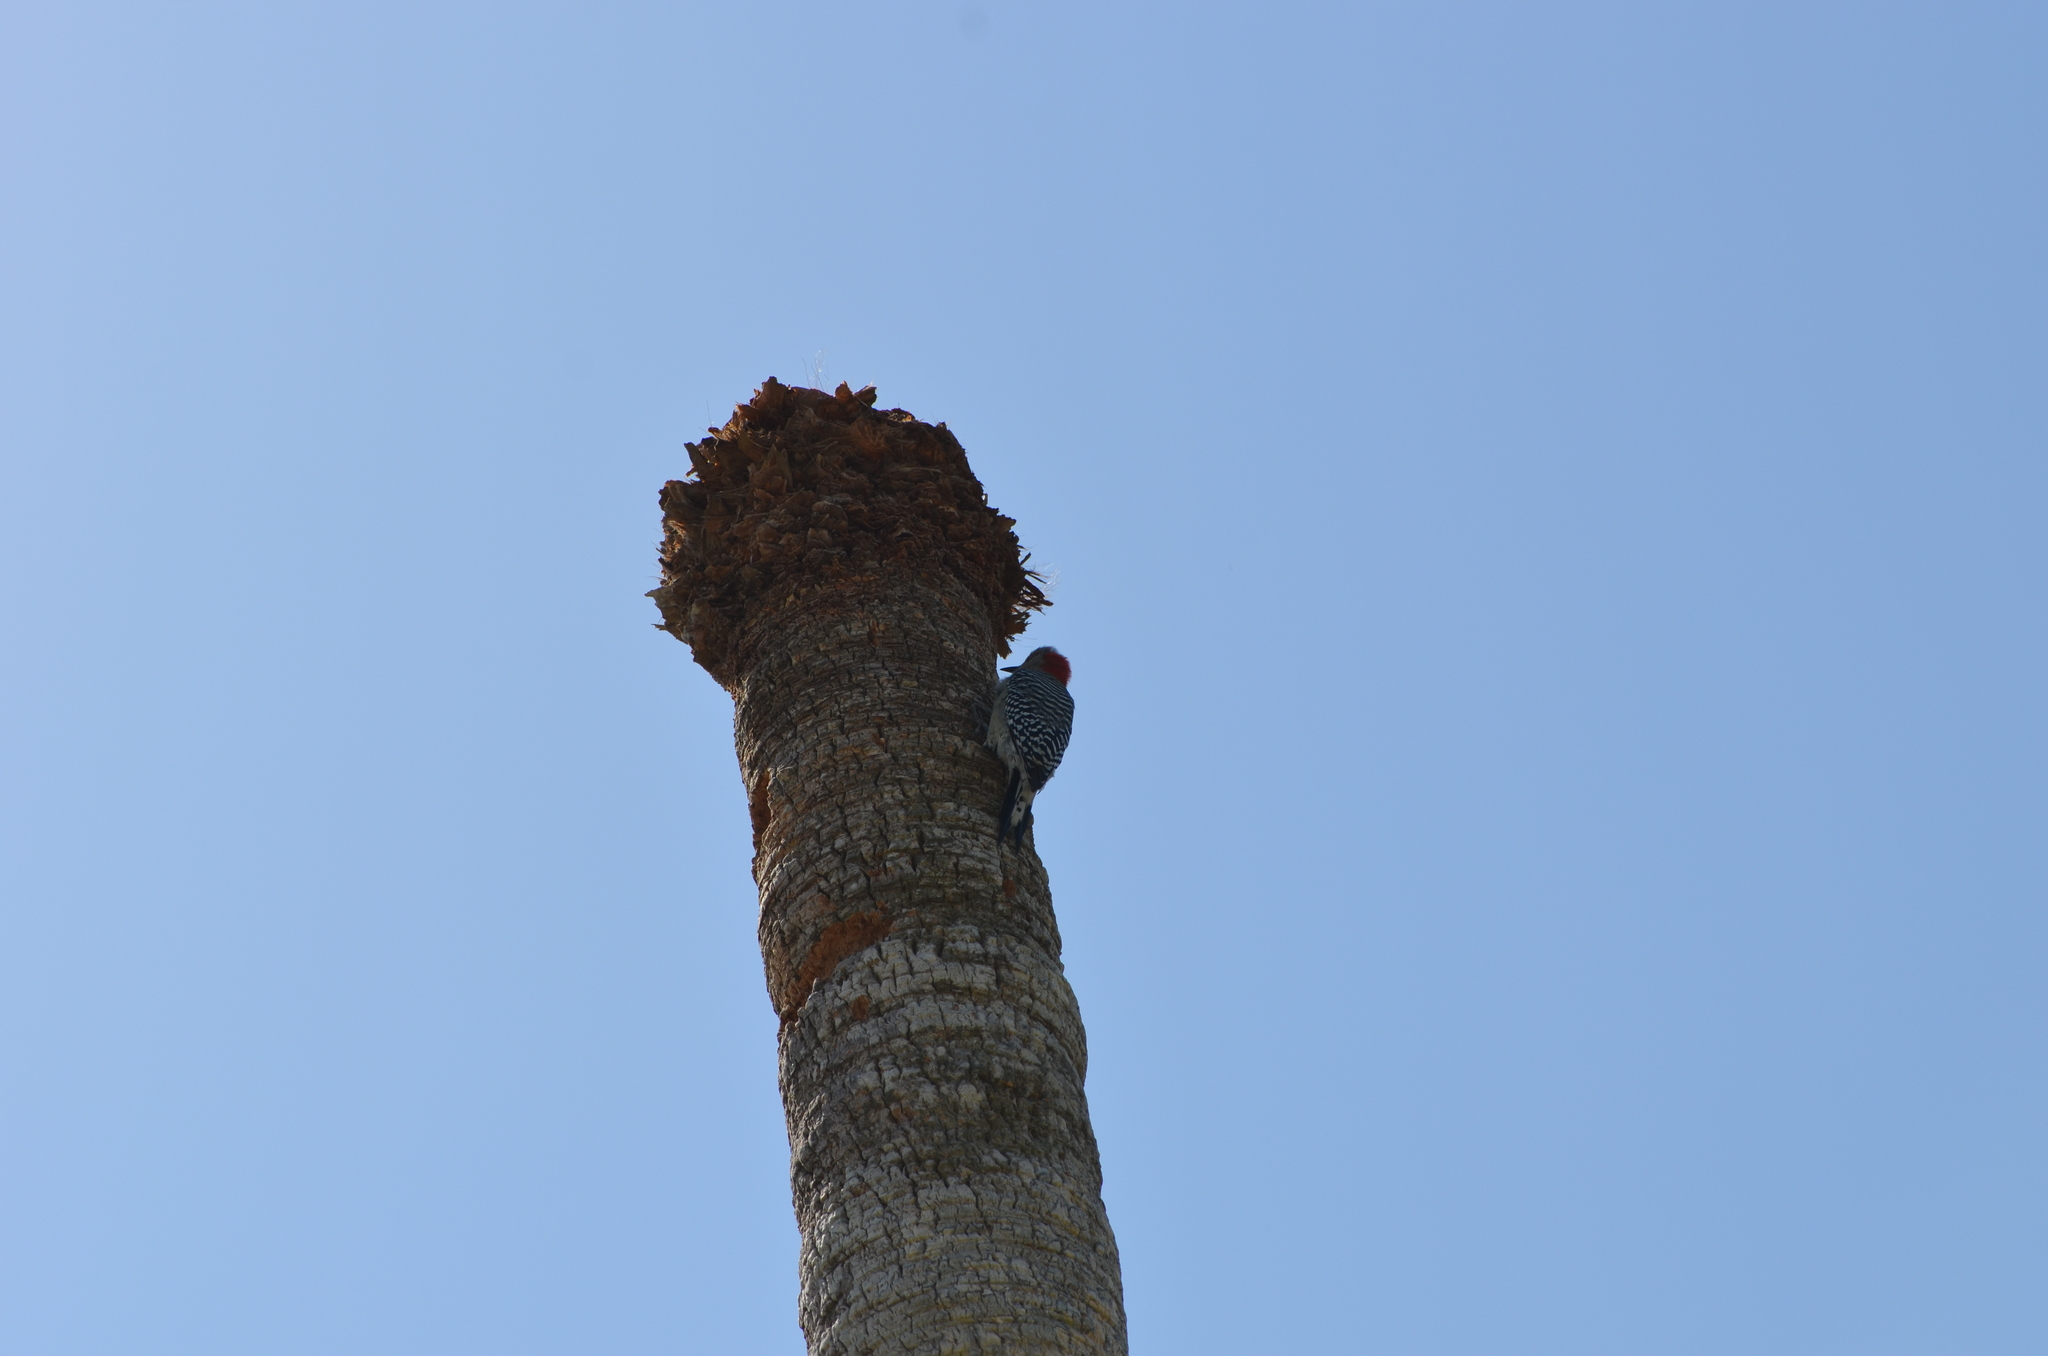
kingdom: Animalia
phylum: Chordata
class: Aves
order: Piciformes
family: Picidae
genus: Melanerpes
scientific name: Melanerpes carolinus
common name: Red-bellied woodpecker
